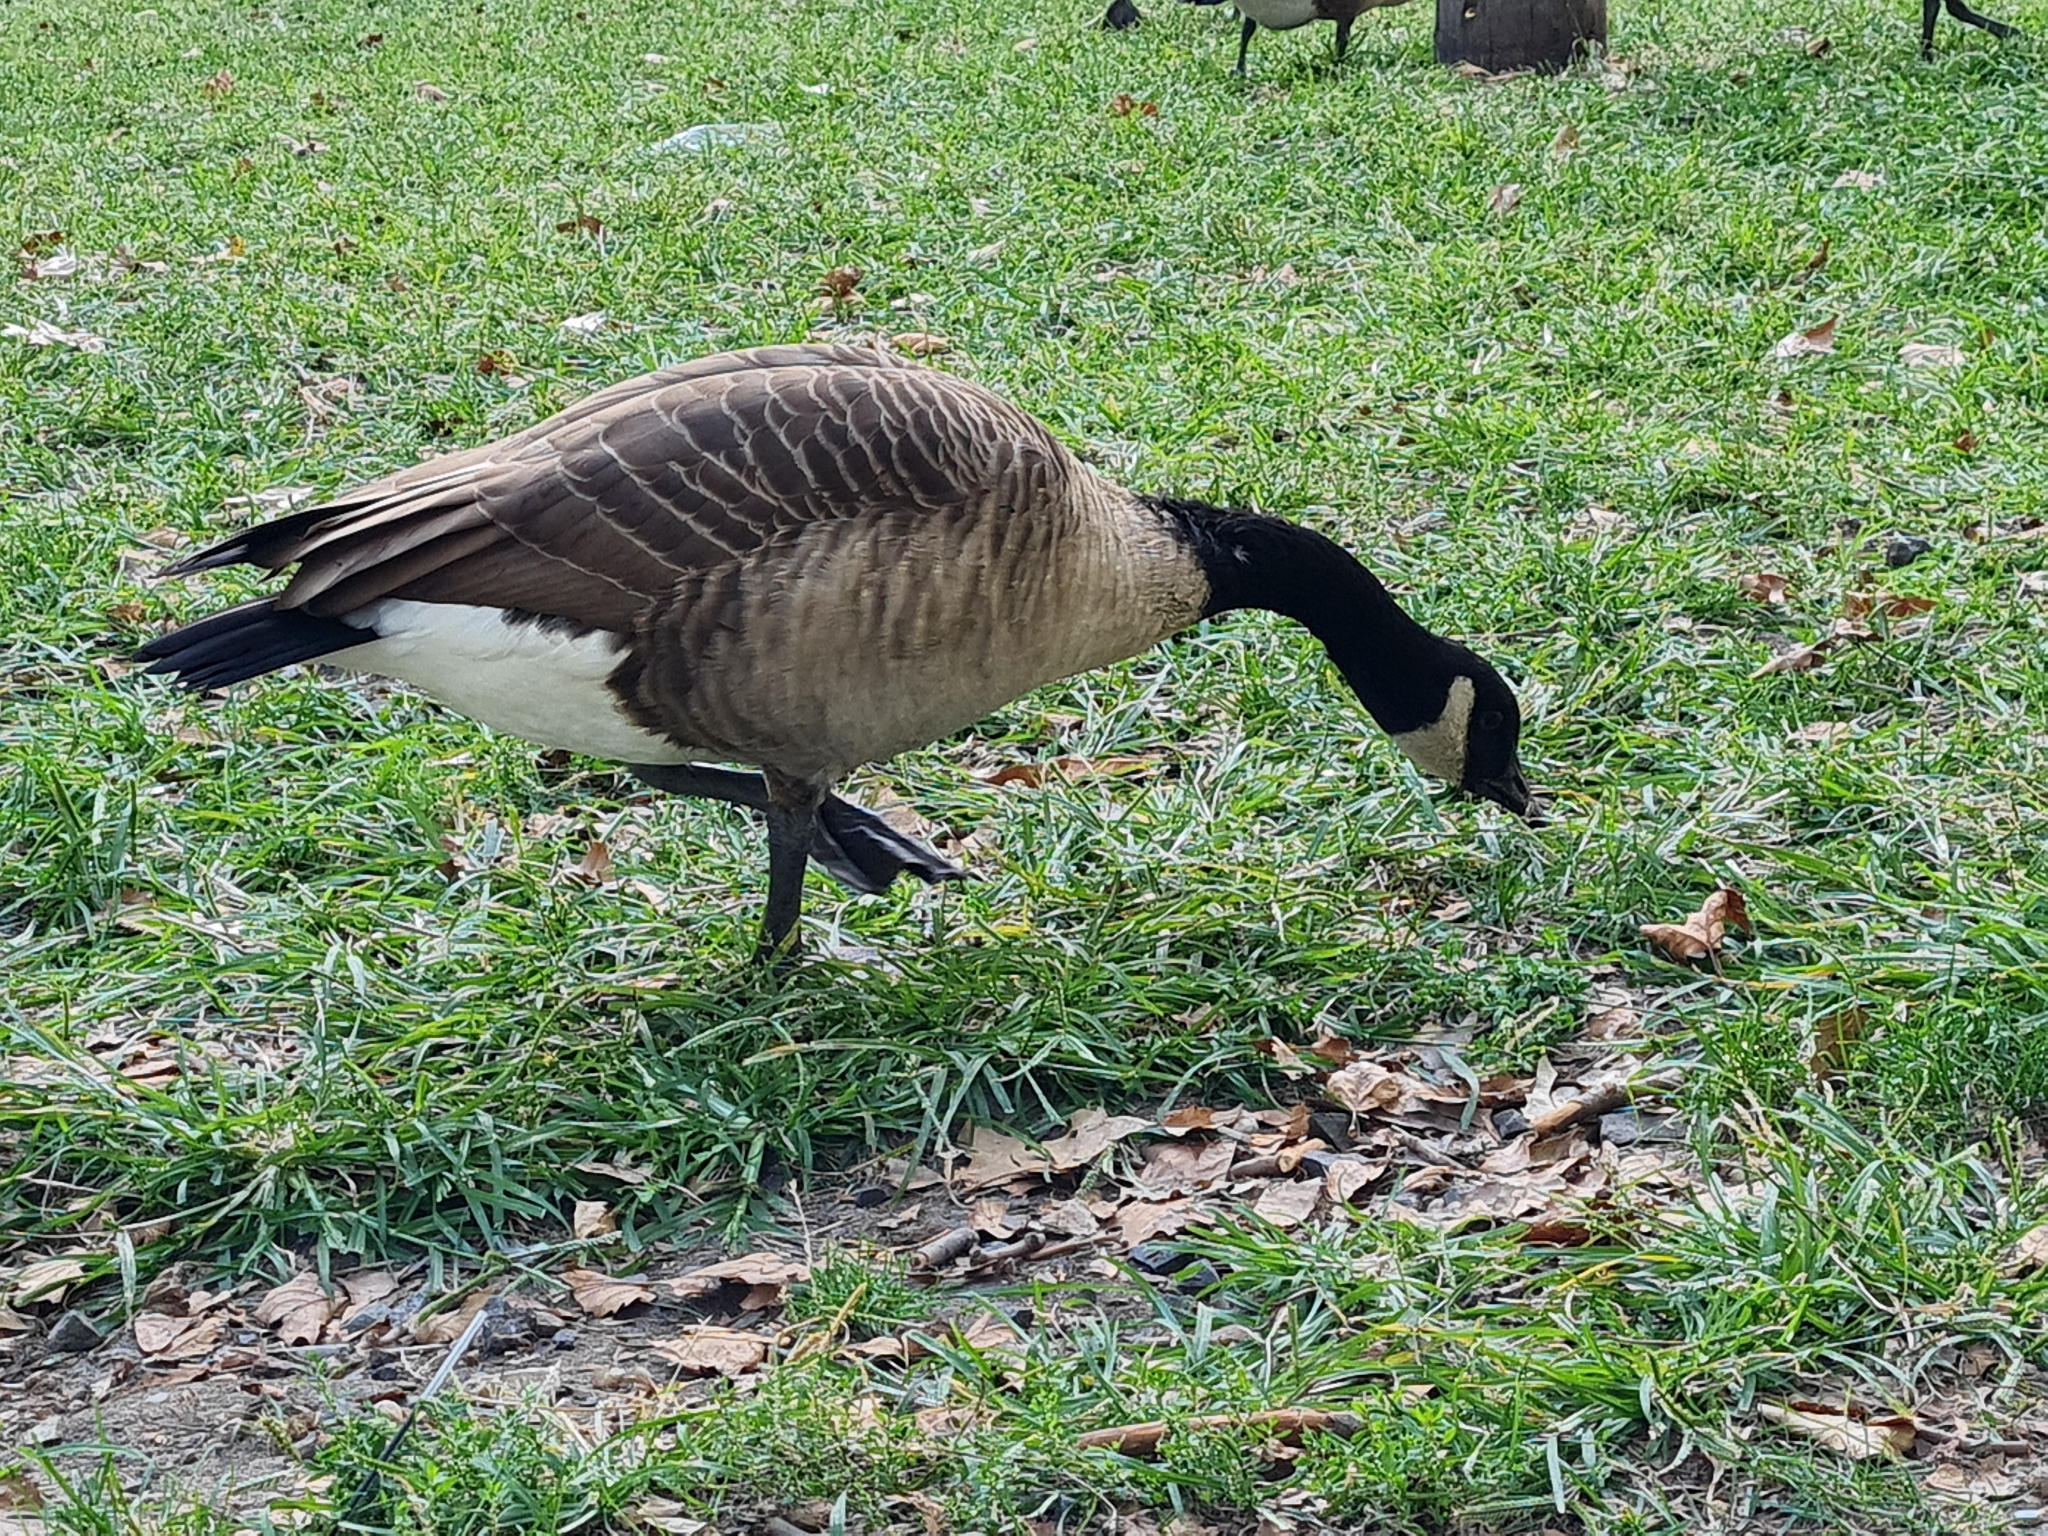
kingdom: Animalia
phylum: Chordata
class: Aves
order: Anseriformes
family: Anatidae
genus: Branta
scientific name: Branta canadensis
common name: Canada goose
